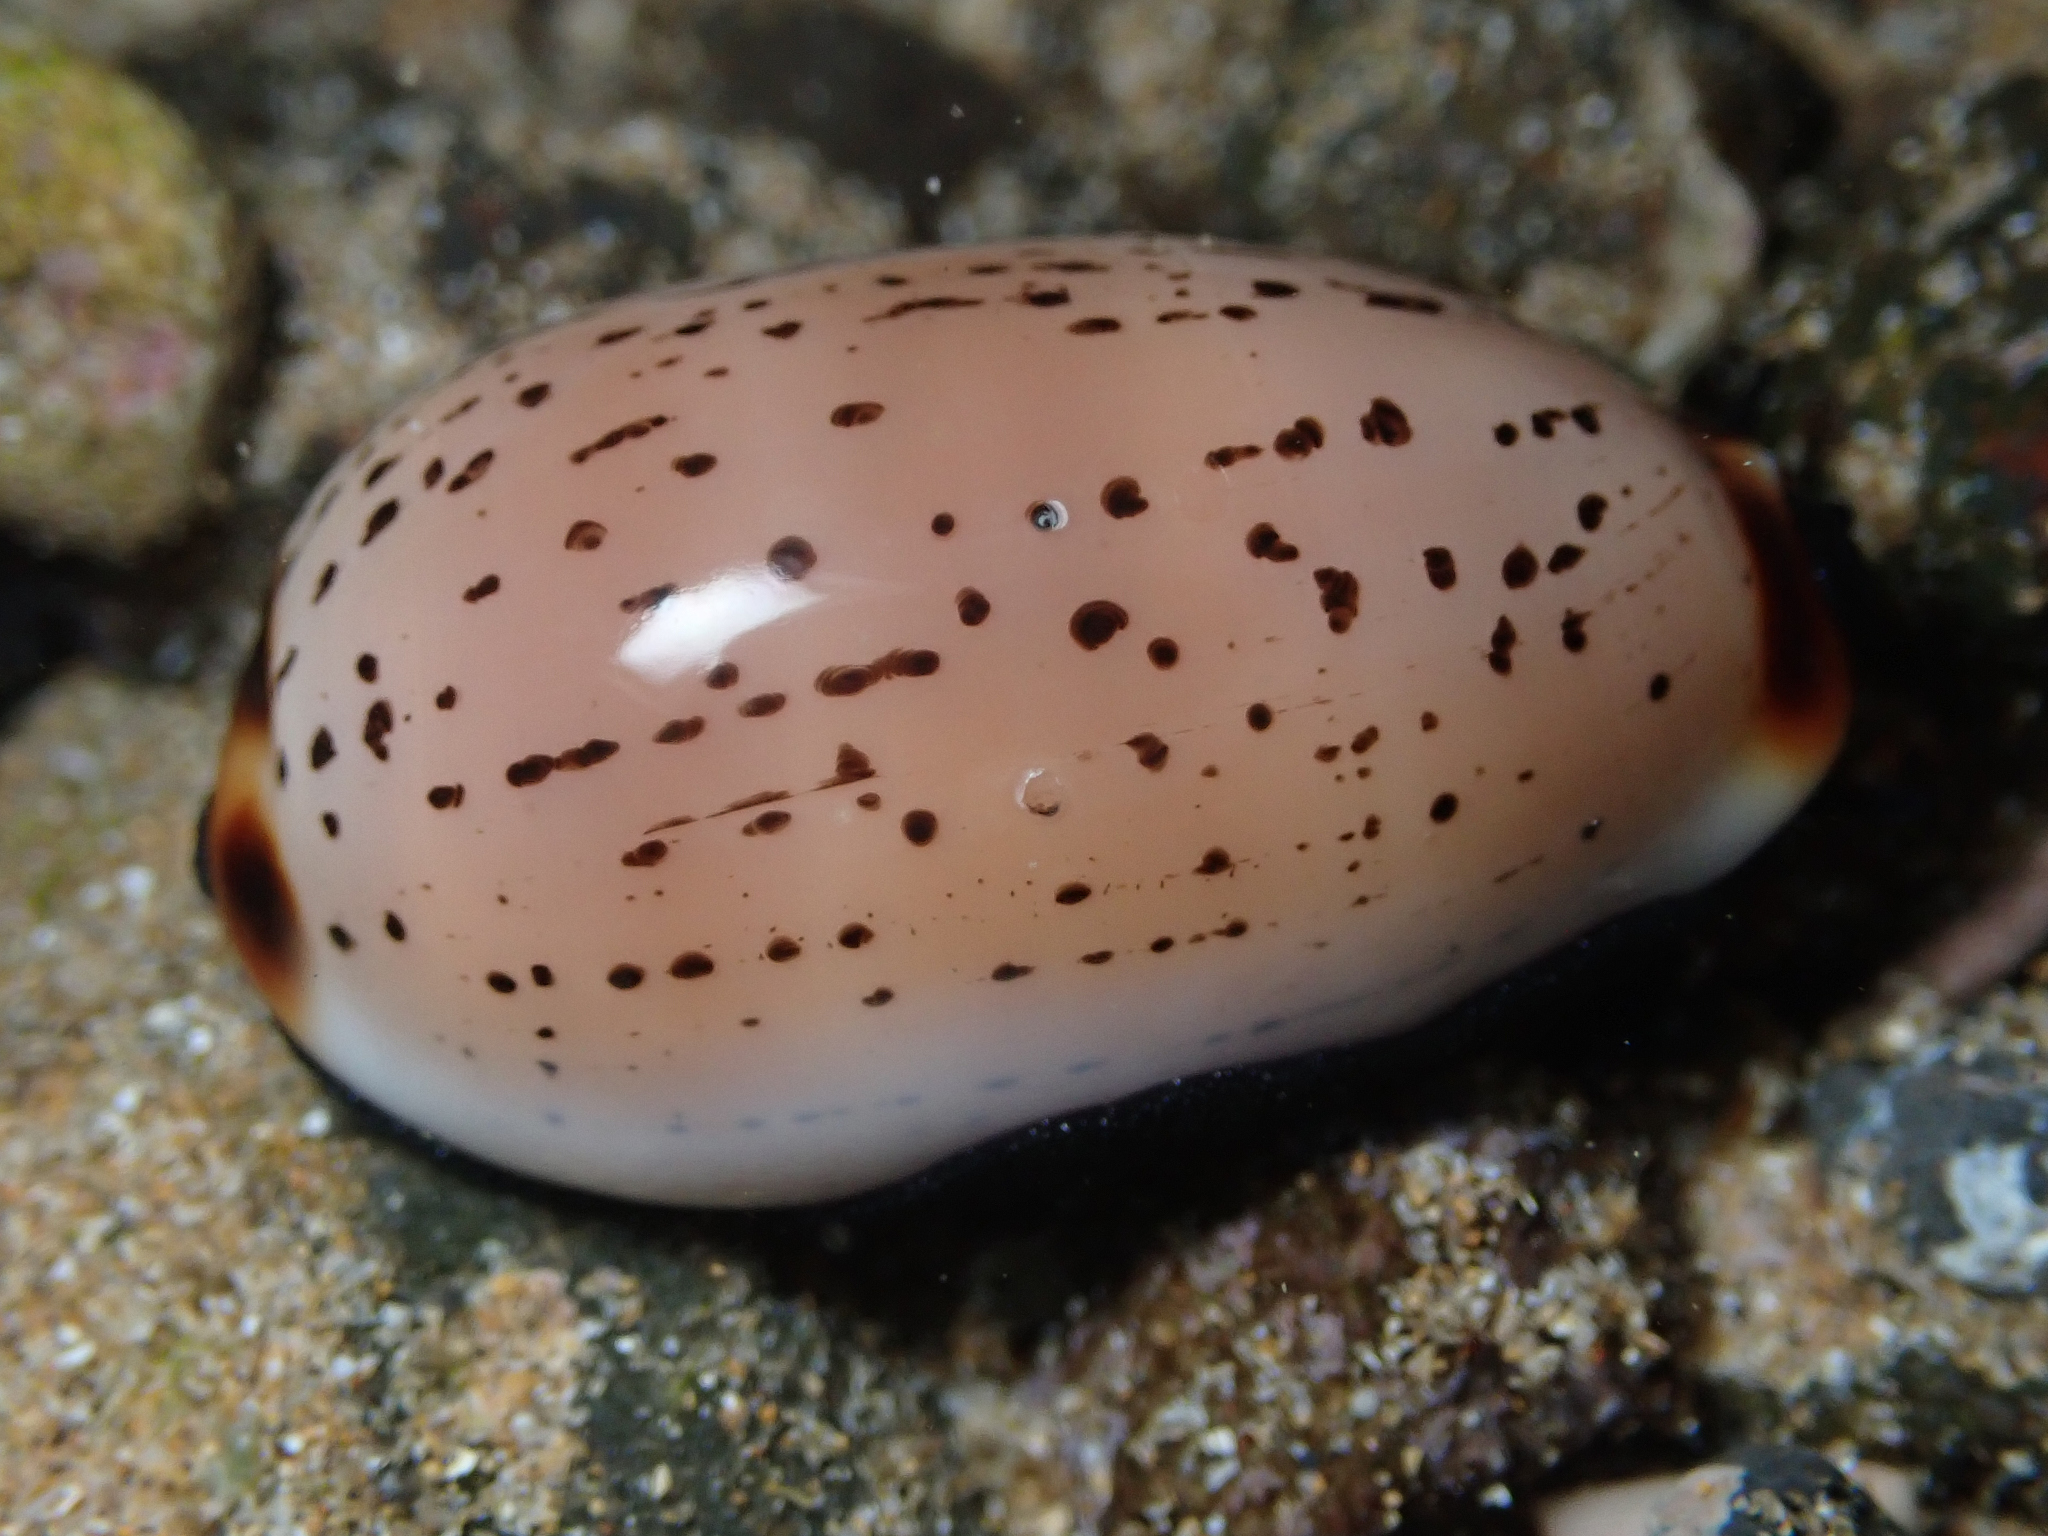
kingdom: Animalia
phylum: Mollusca
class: Gastropoda
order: Littorinimorpha
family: Cypraeidae
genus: Luria
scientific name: Luria isabella
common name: Isabell cowry
